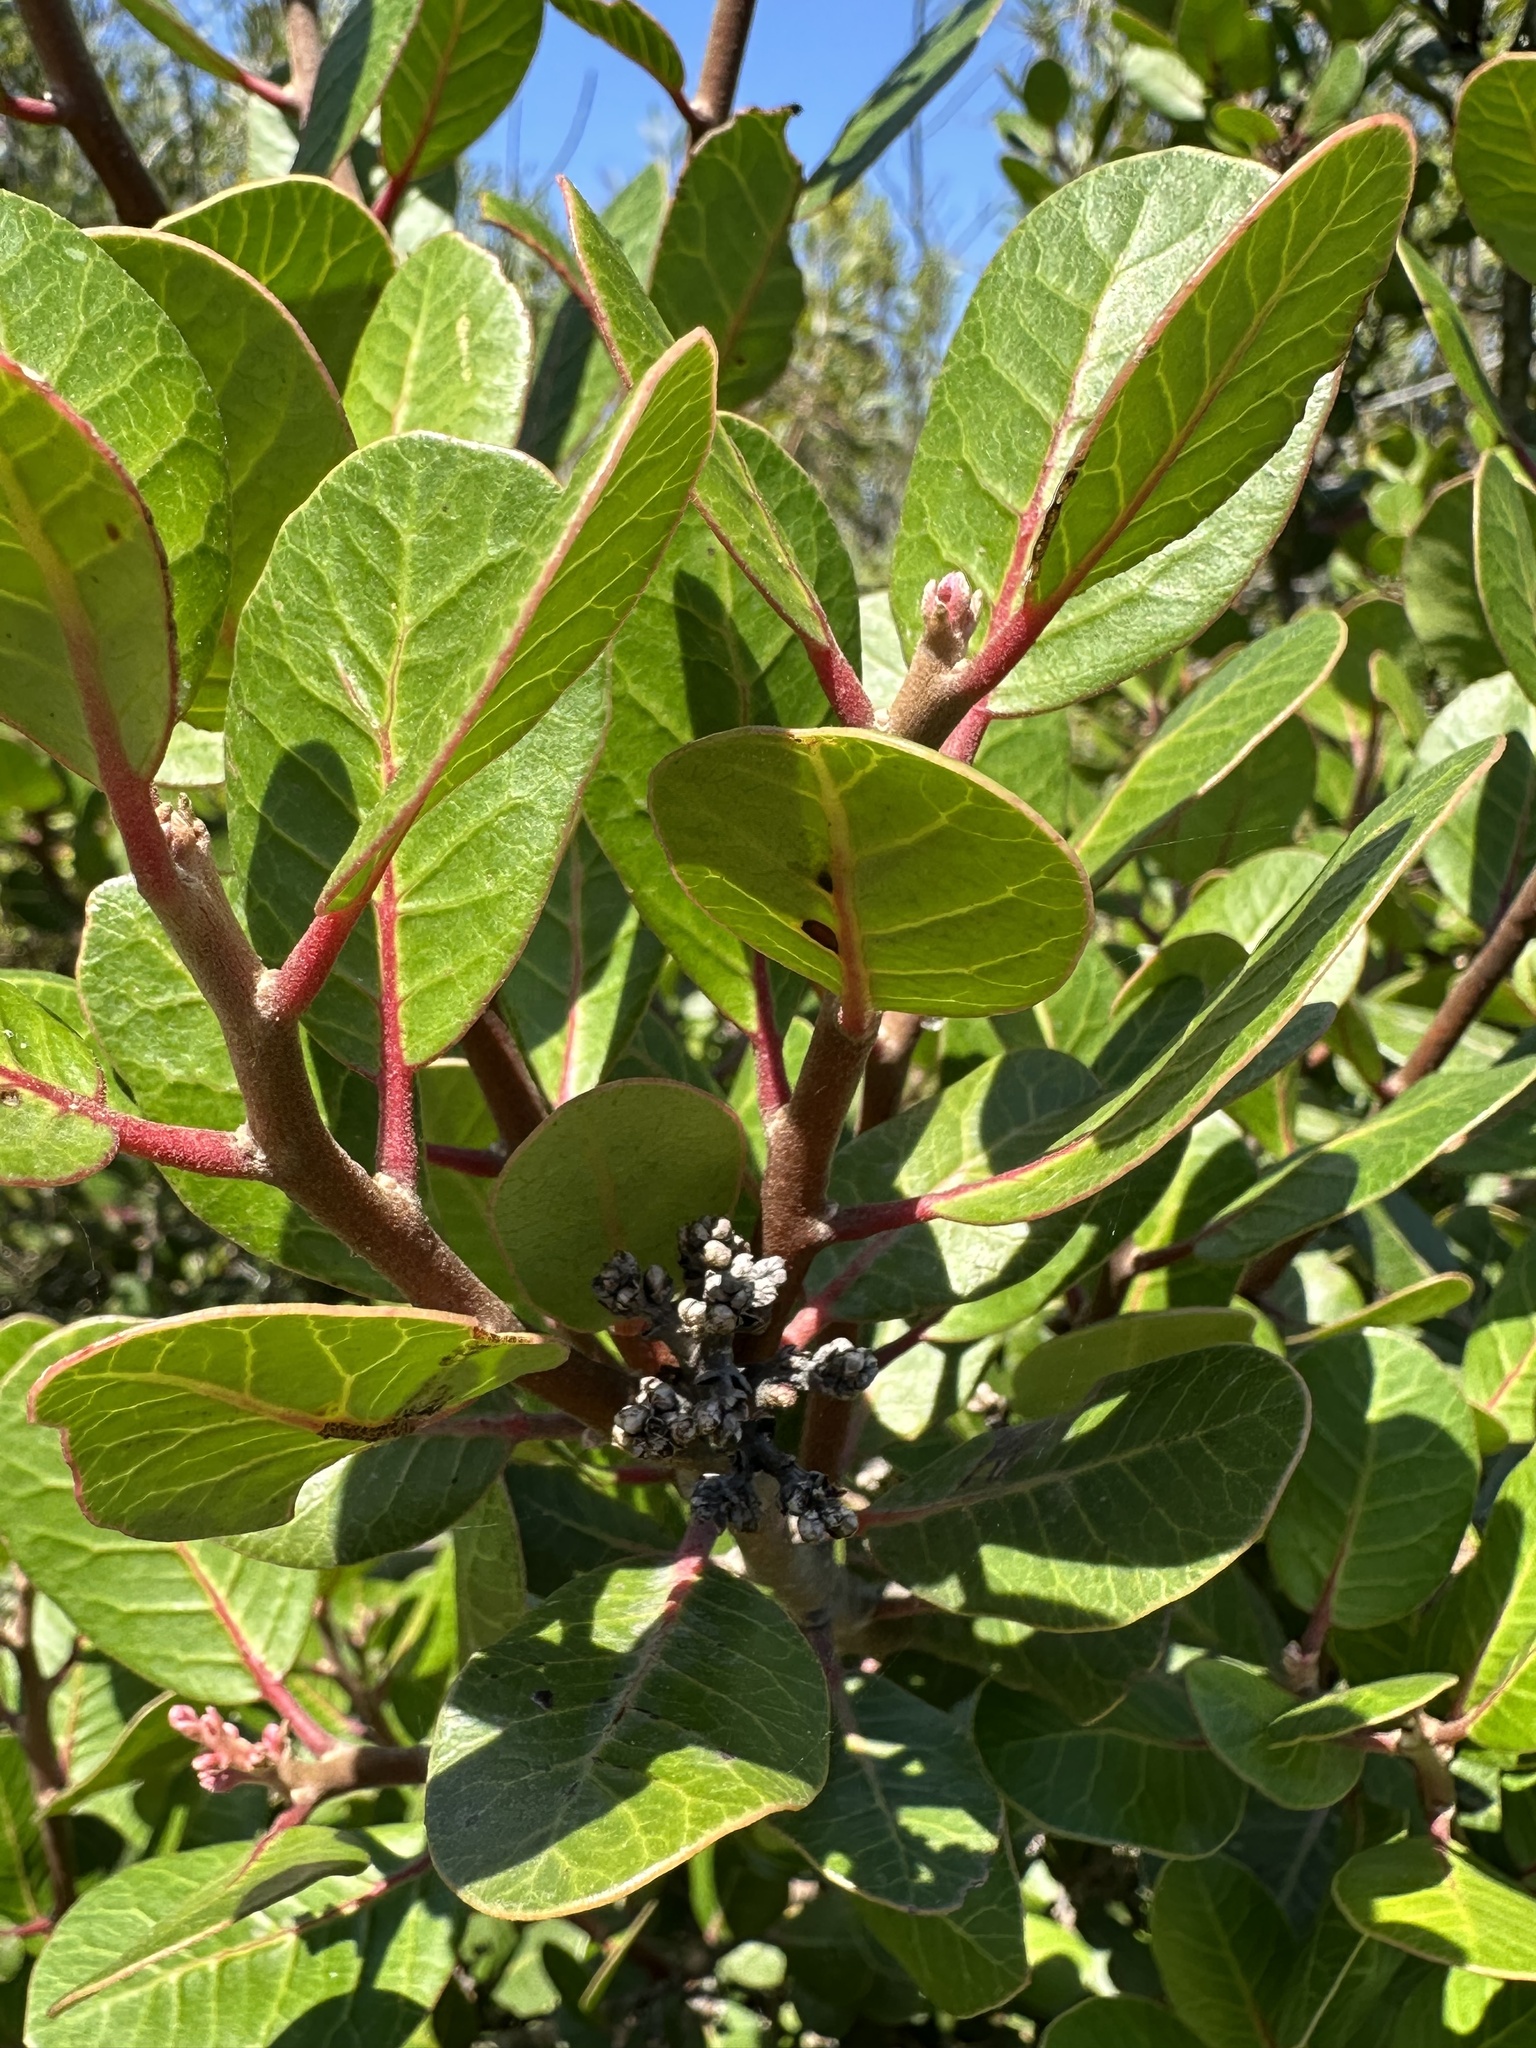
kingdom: Plantae
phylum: Tracheophyta
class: Magnoliopsida
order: Sapindales
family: Anacardiaceae
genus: Rhus
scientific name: Rhus integrifolia
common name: Lemonade sumac
